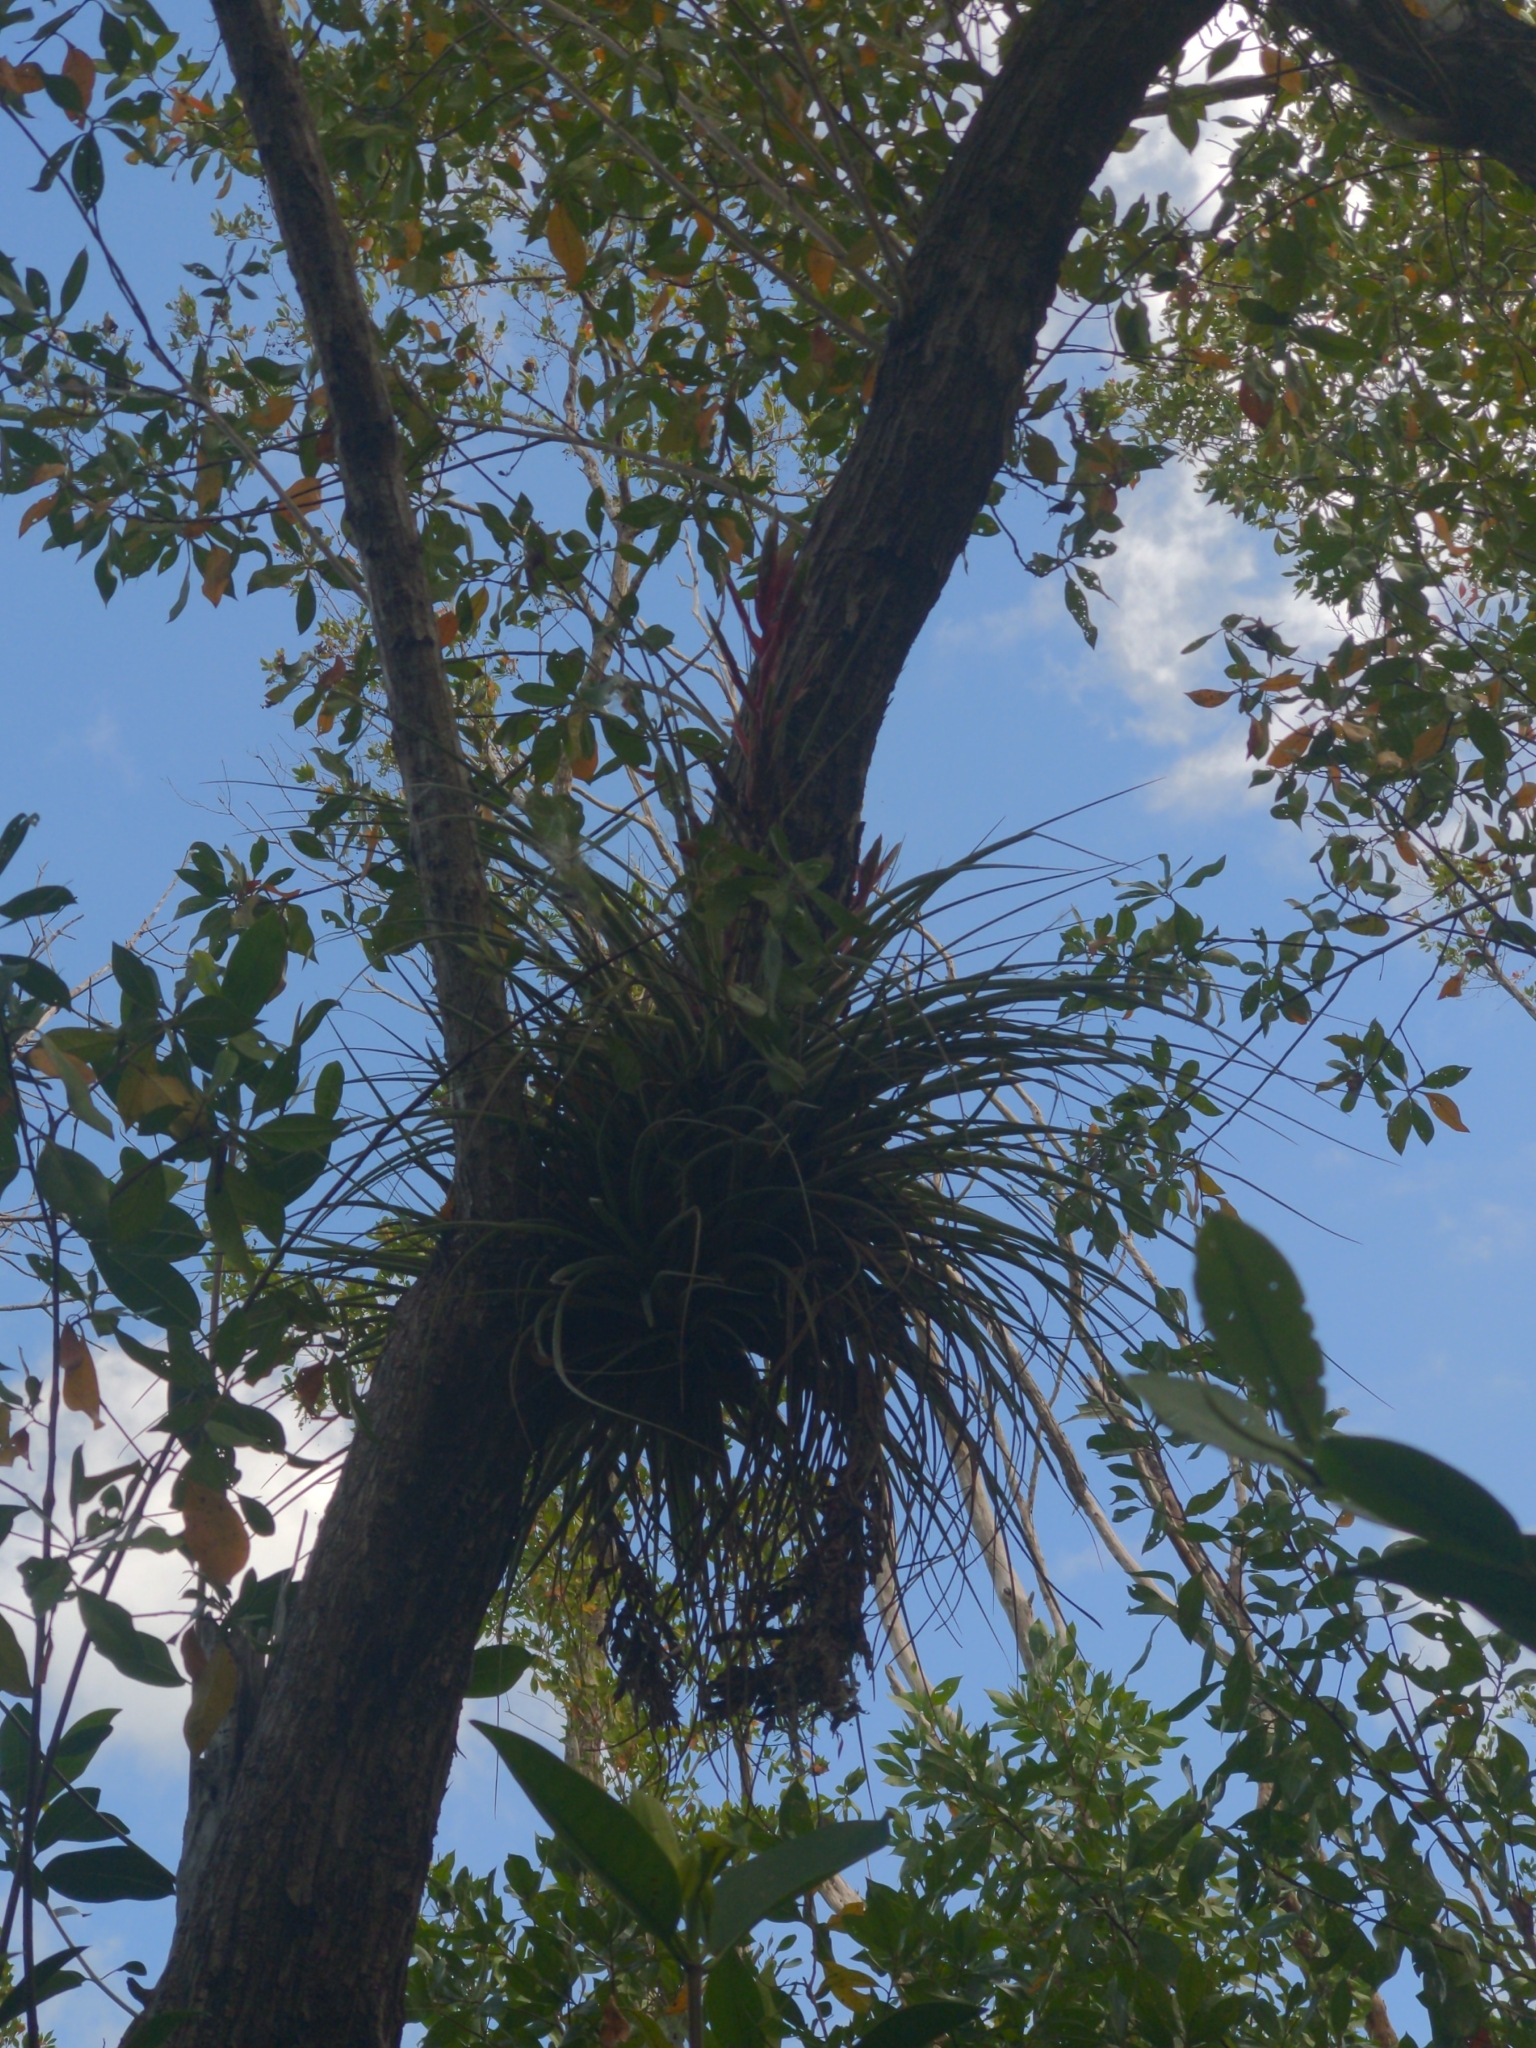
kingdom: Plantae
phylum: Tracheophyta
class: Liliopsida
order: Poales
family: Bromeliaceae
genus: Tillandsia
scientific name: Tillandsia fasciculata
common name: Giant airplant
